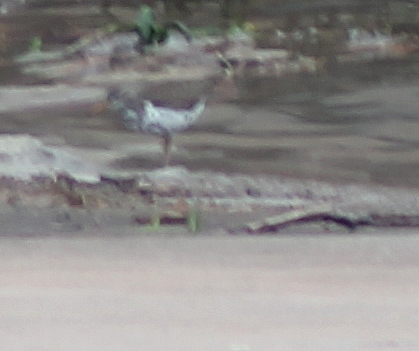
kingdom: Animalia
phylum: Chordata
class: Aves
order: Charadriiformes
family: Scolopacidae
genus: Actitis
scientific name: Actitis macularius
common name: Spotted sandpiper
